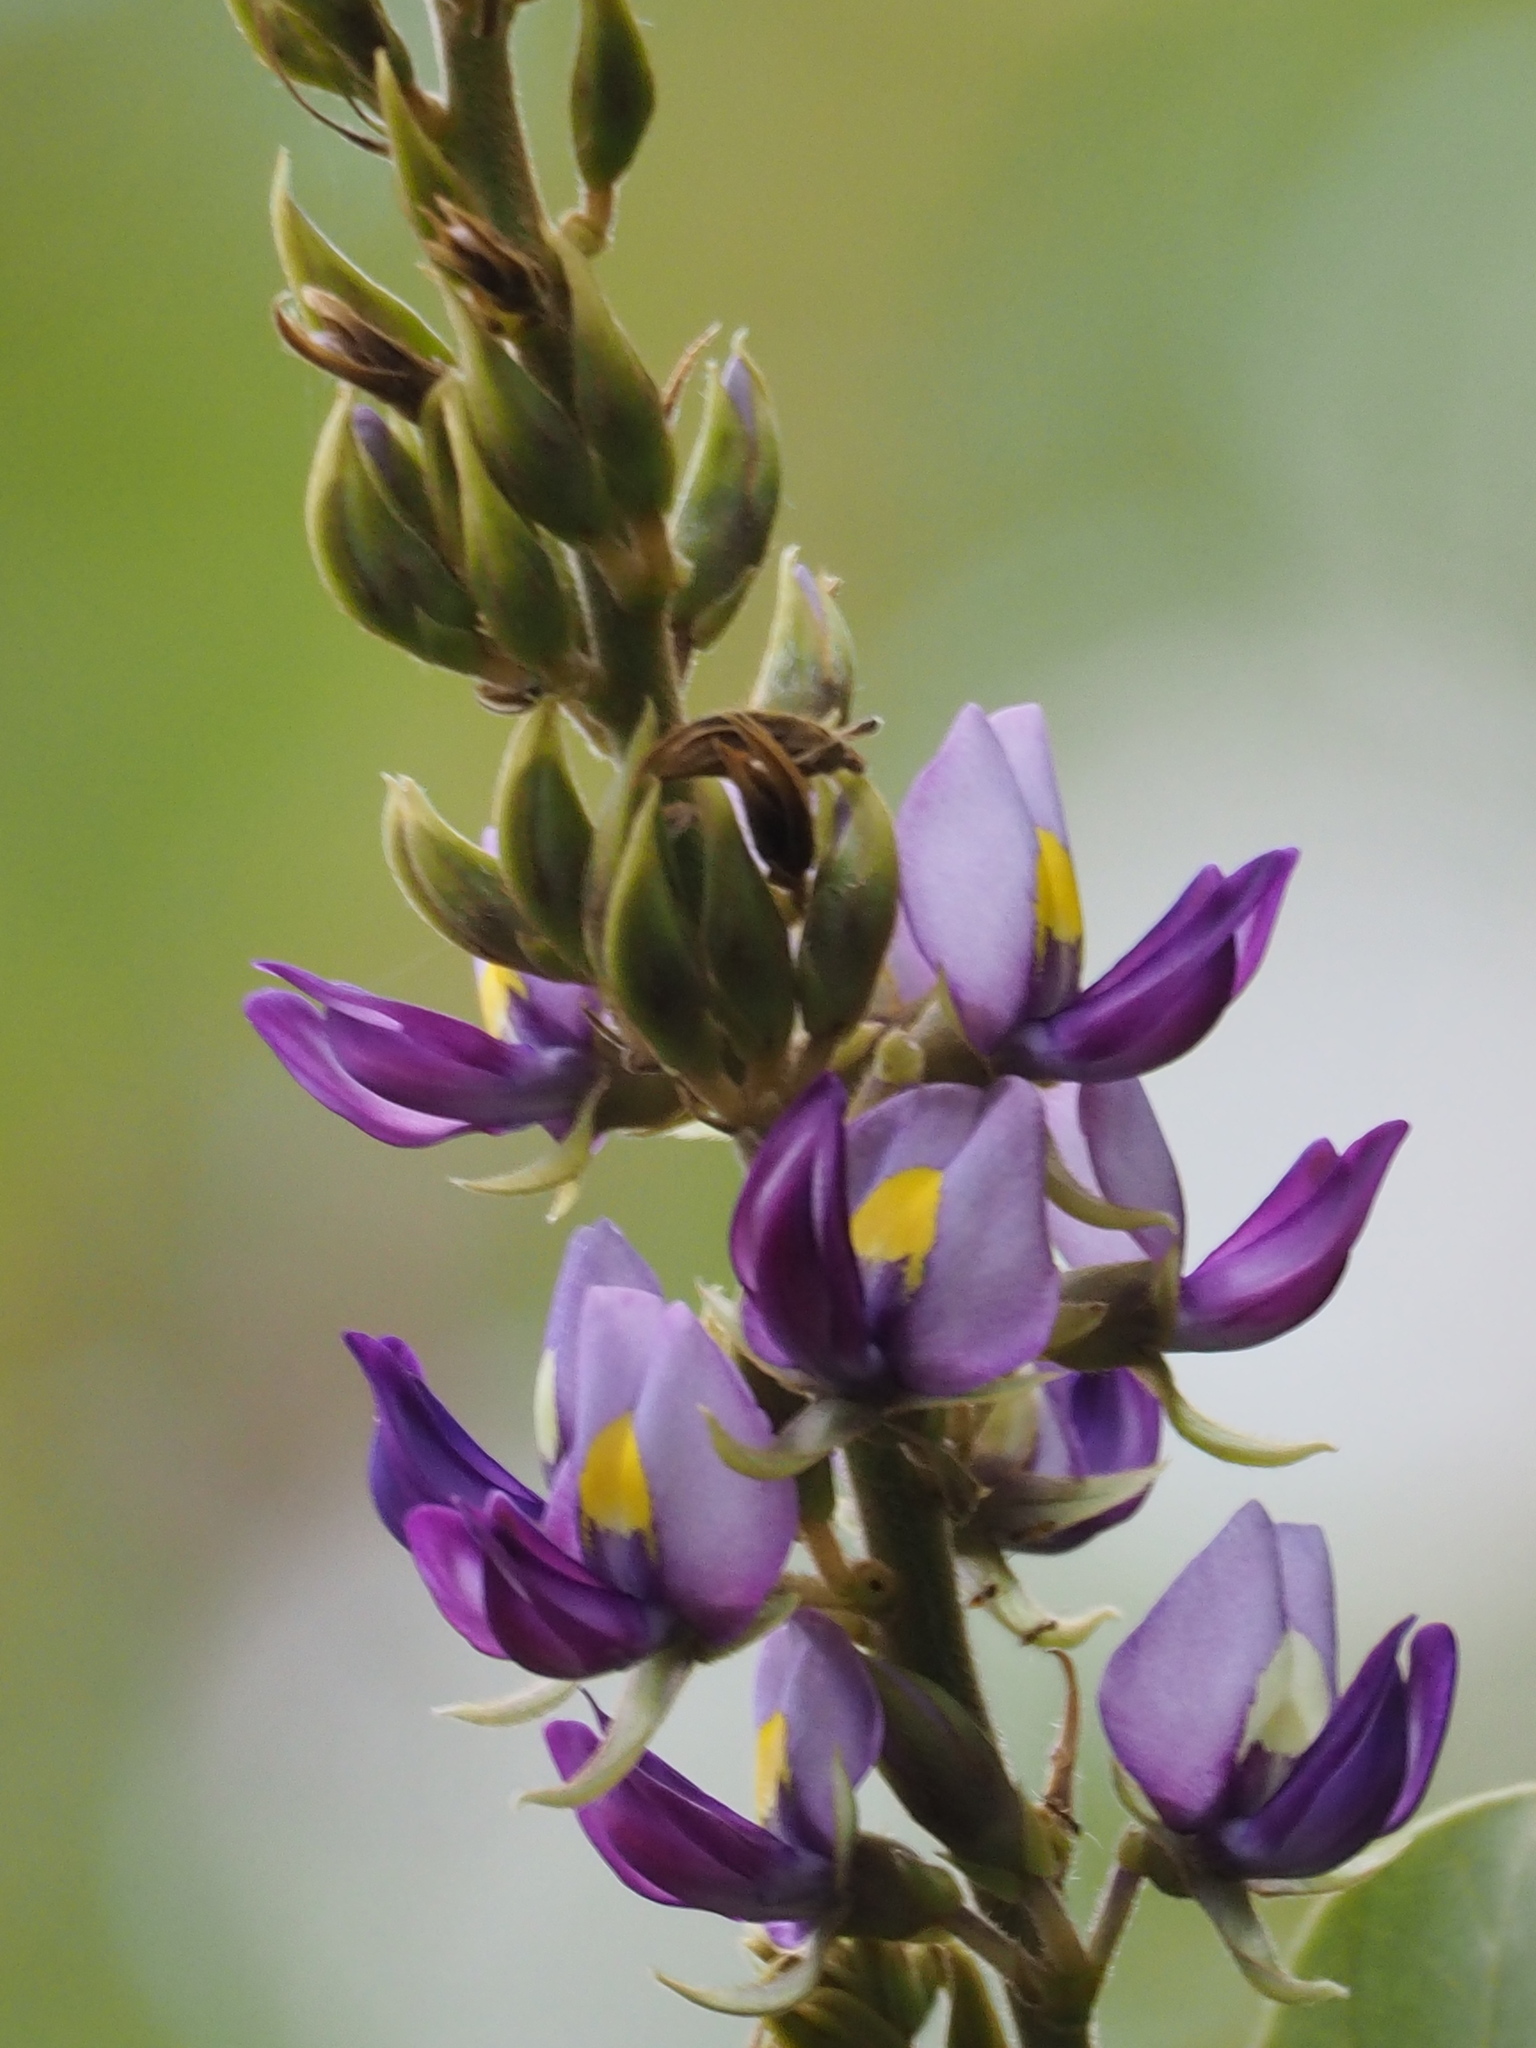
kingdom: Plantae
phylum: Tracheophyta
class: Magnoliopsida
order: Fabales
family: Fabaceae
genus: Pueraria
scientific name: Pueraria montana
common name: Kudzu
